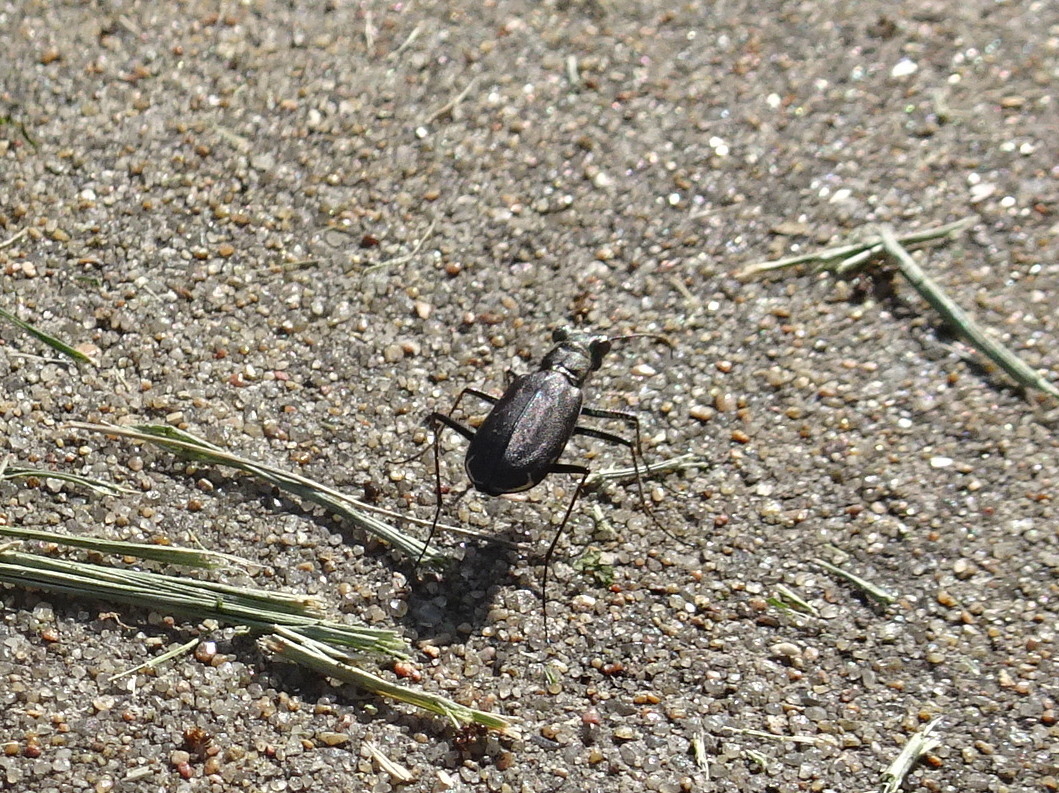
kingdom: Animalia
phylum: Arthropoda
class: Insecta
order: Coleoptera
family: Carabidae
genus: Cicindela
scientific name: Cicindela punctulata
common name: Punctured tiger beetle
